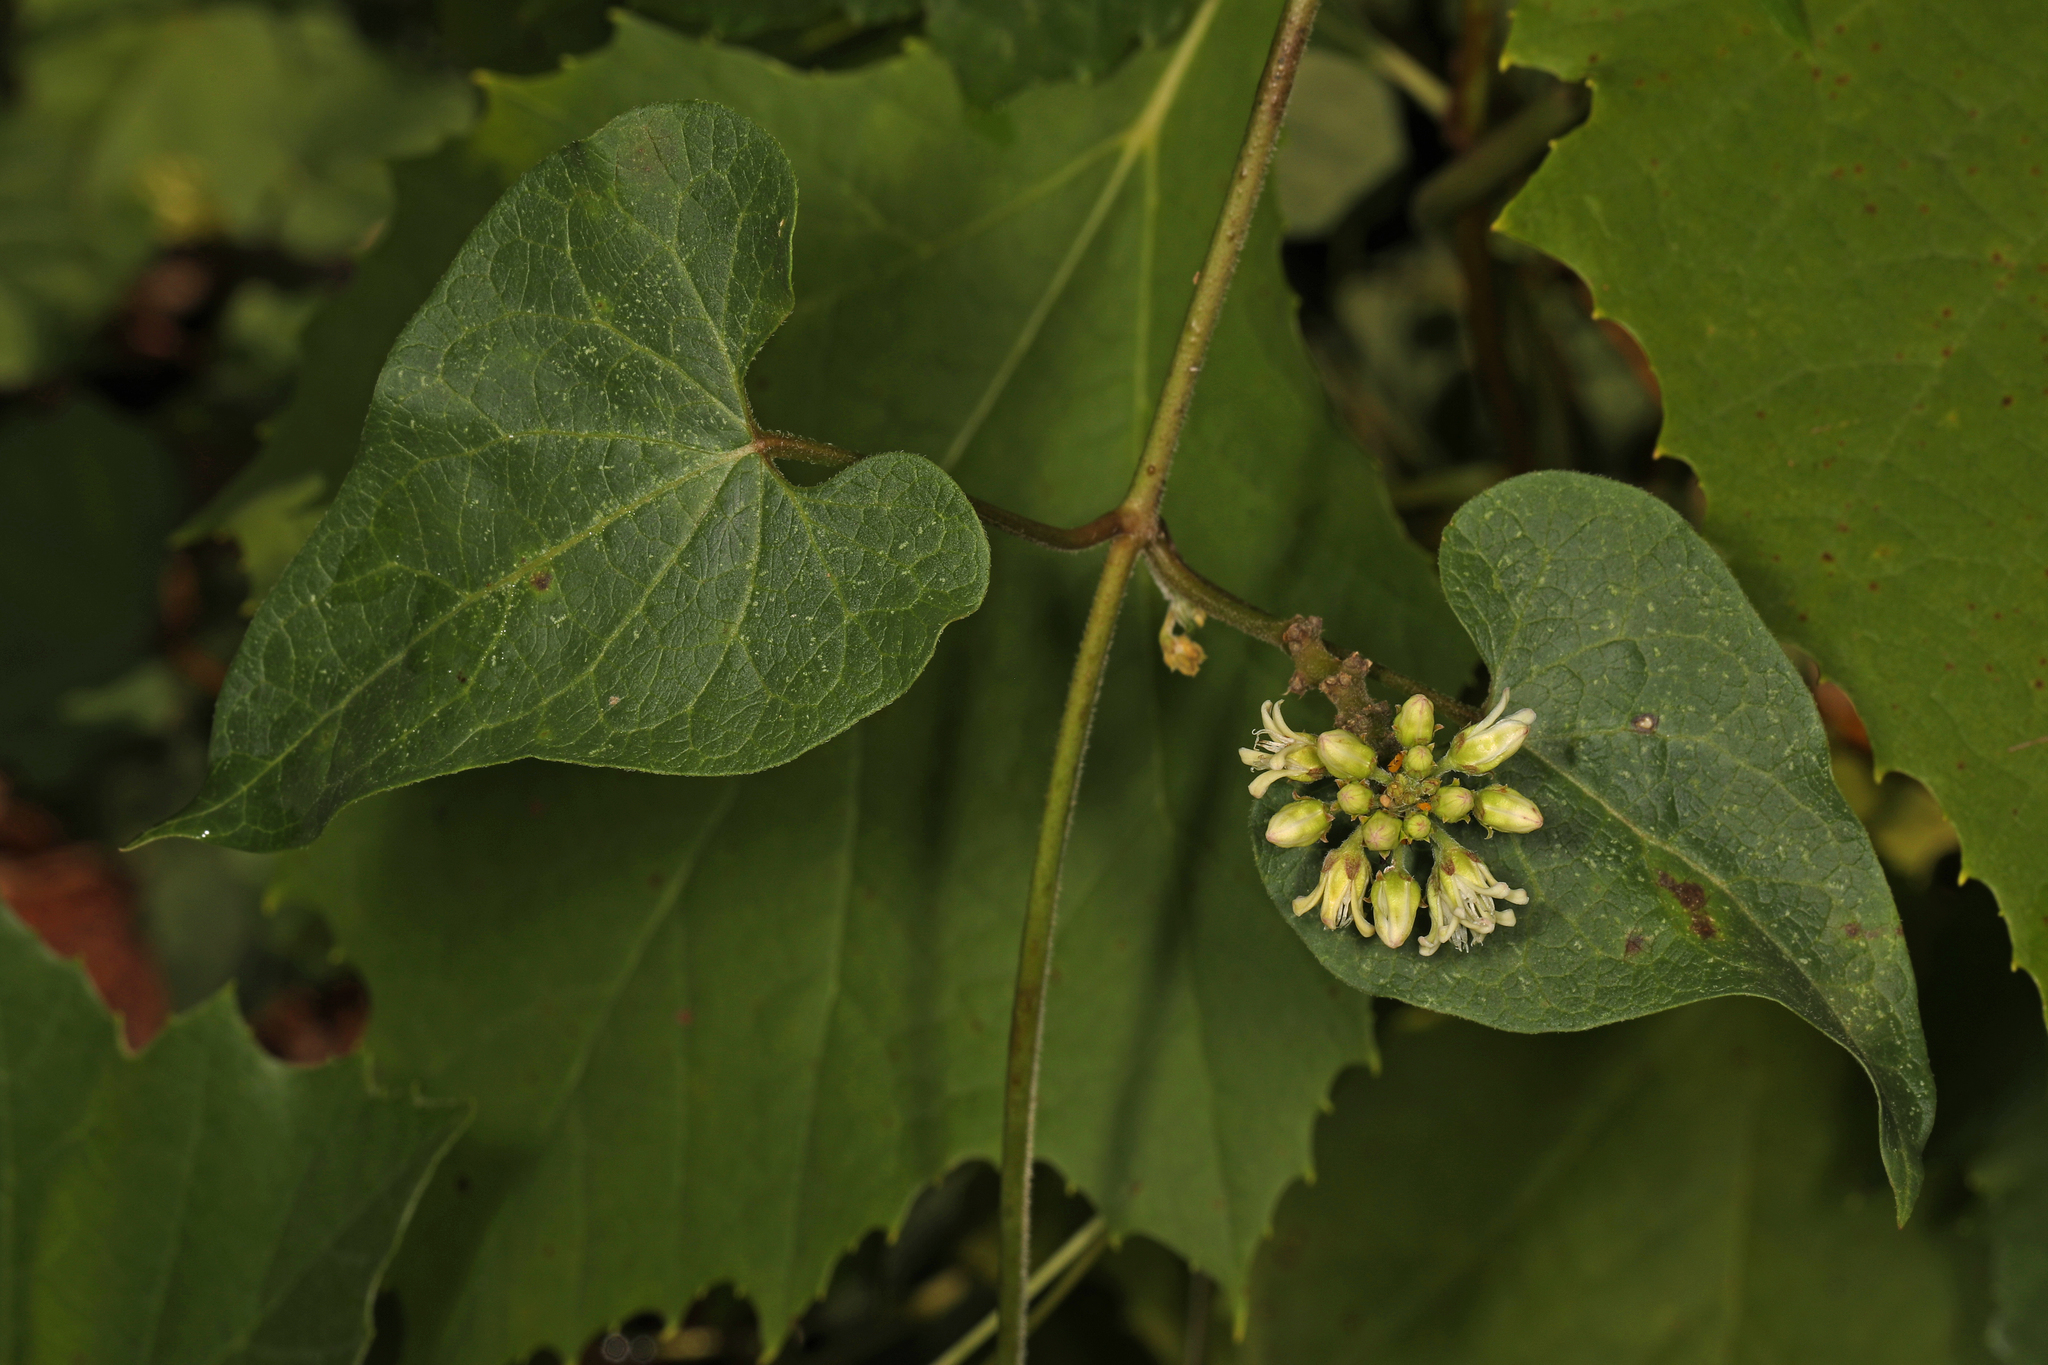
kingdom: Plantae
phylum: Tracheophyta
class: Magnoliopsida
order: Gentianales
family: Apocynaceae
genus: Cynanchum
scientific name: Cynanchum laeve
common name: Sandvine
